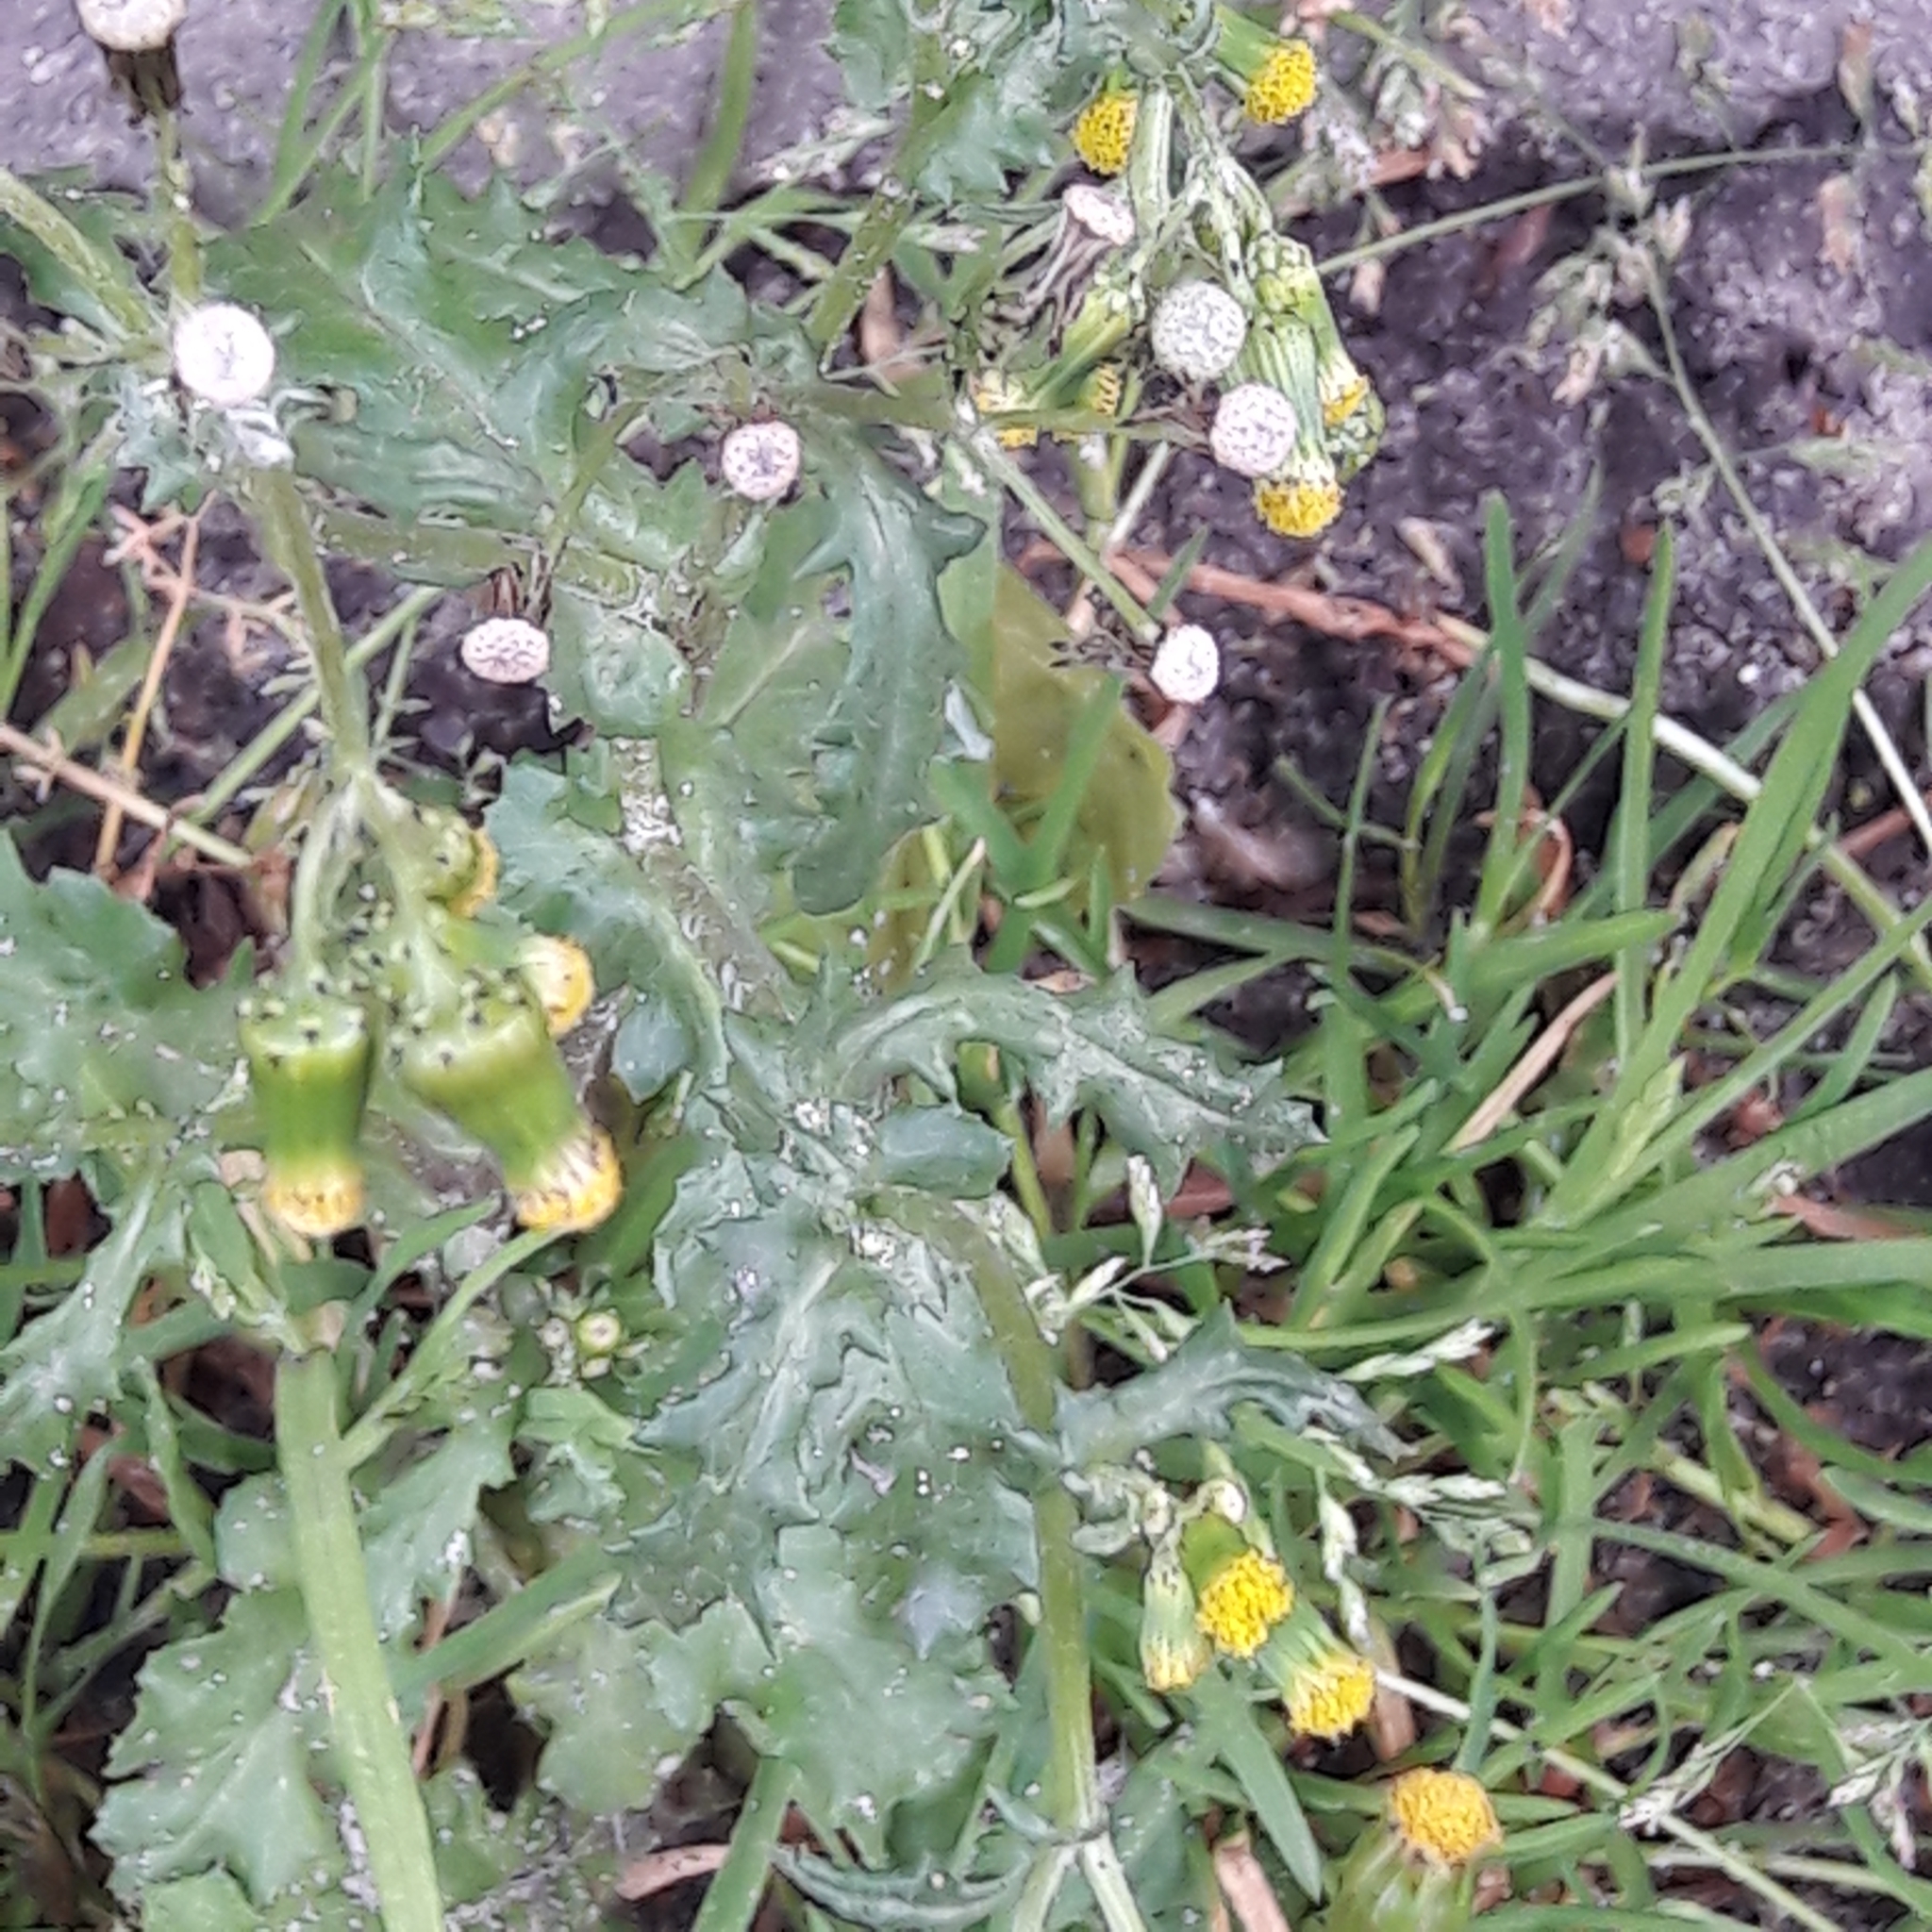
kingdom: Plantae
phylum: Tracheophyta
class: Magnoliopsida
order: Asterales
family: Asteraceae
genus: Senecio
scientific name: Senecio vulgaris
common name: Old-man-in-the-spring
